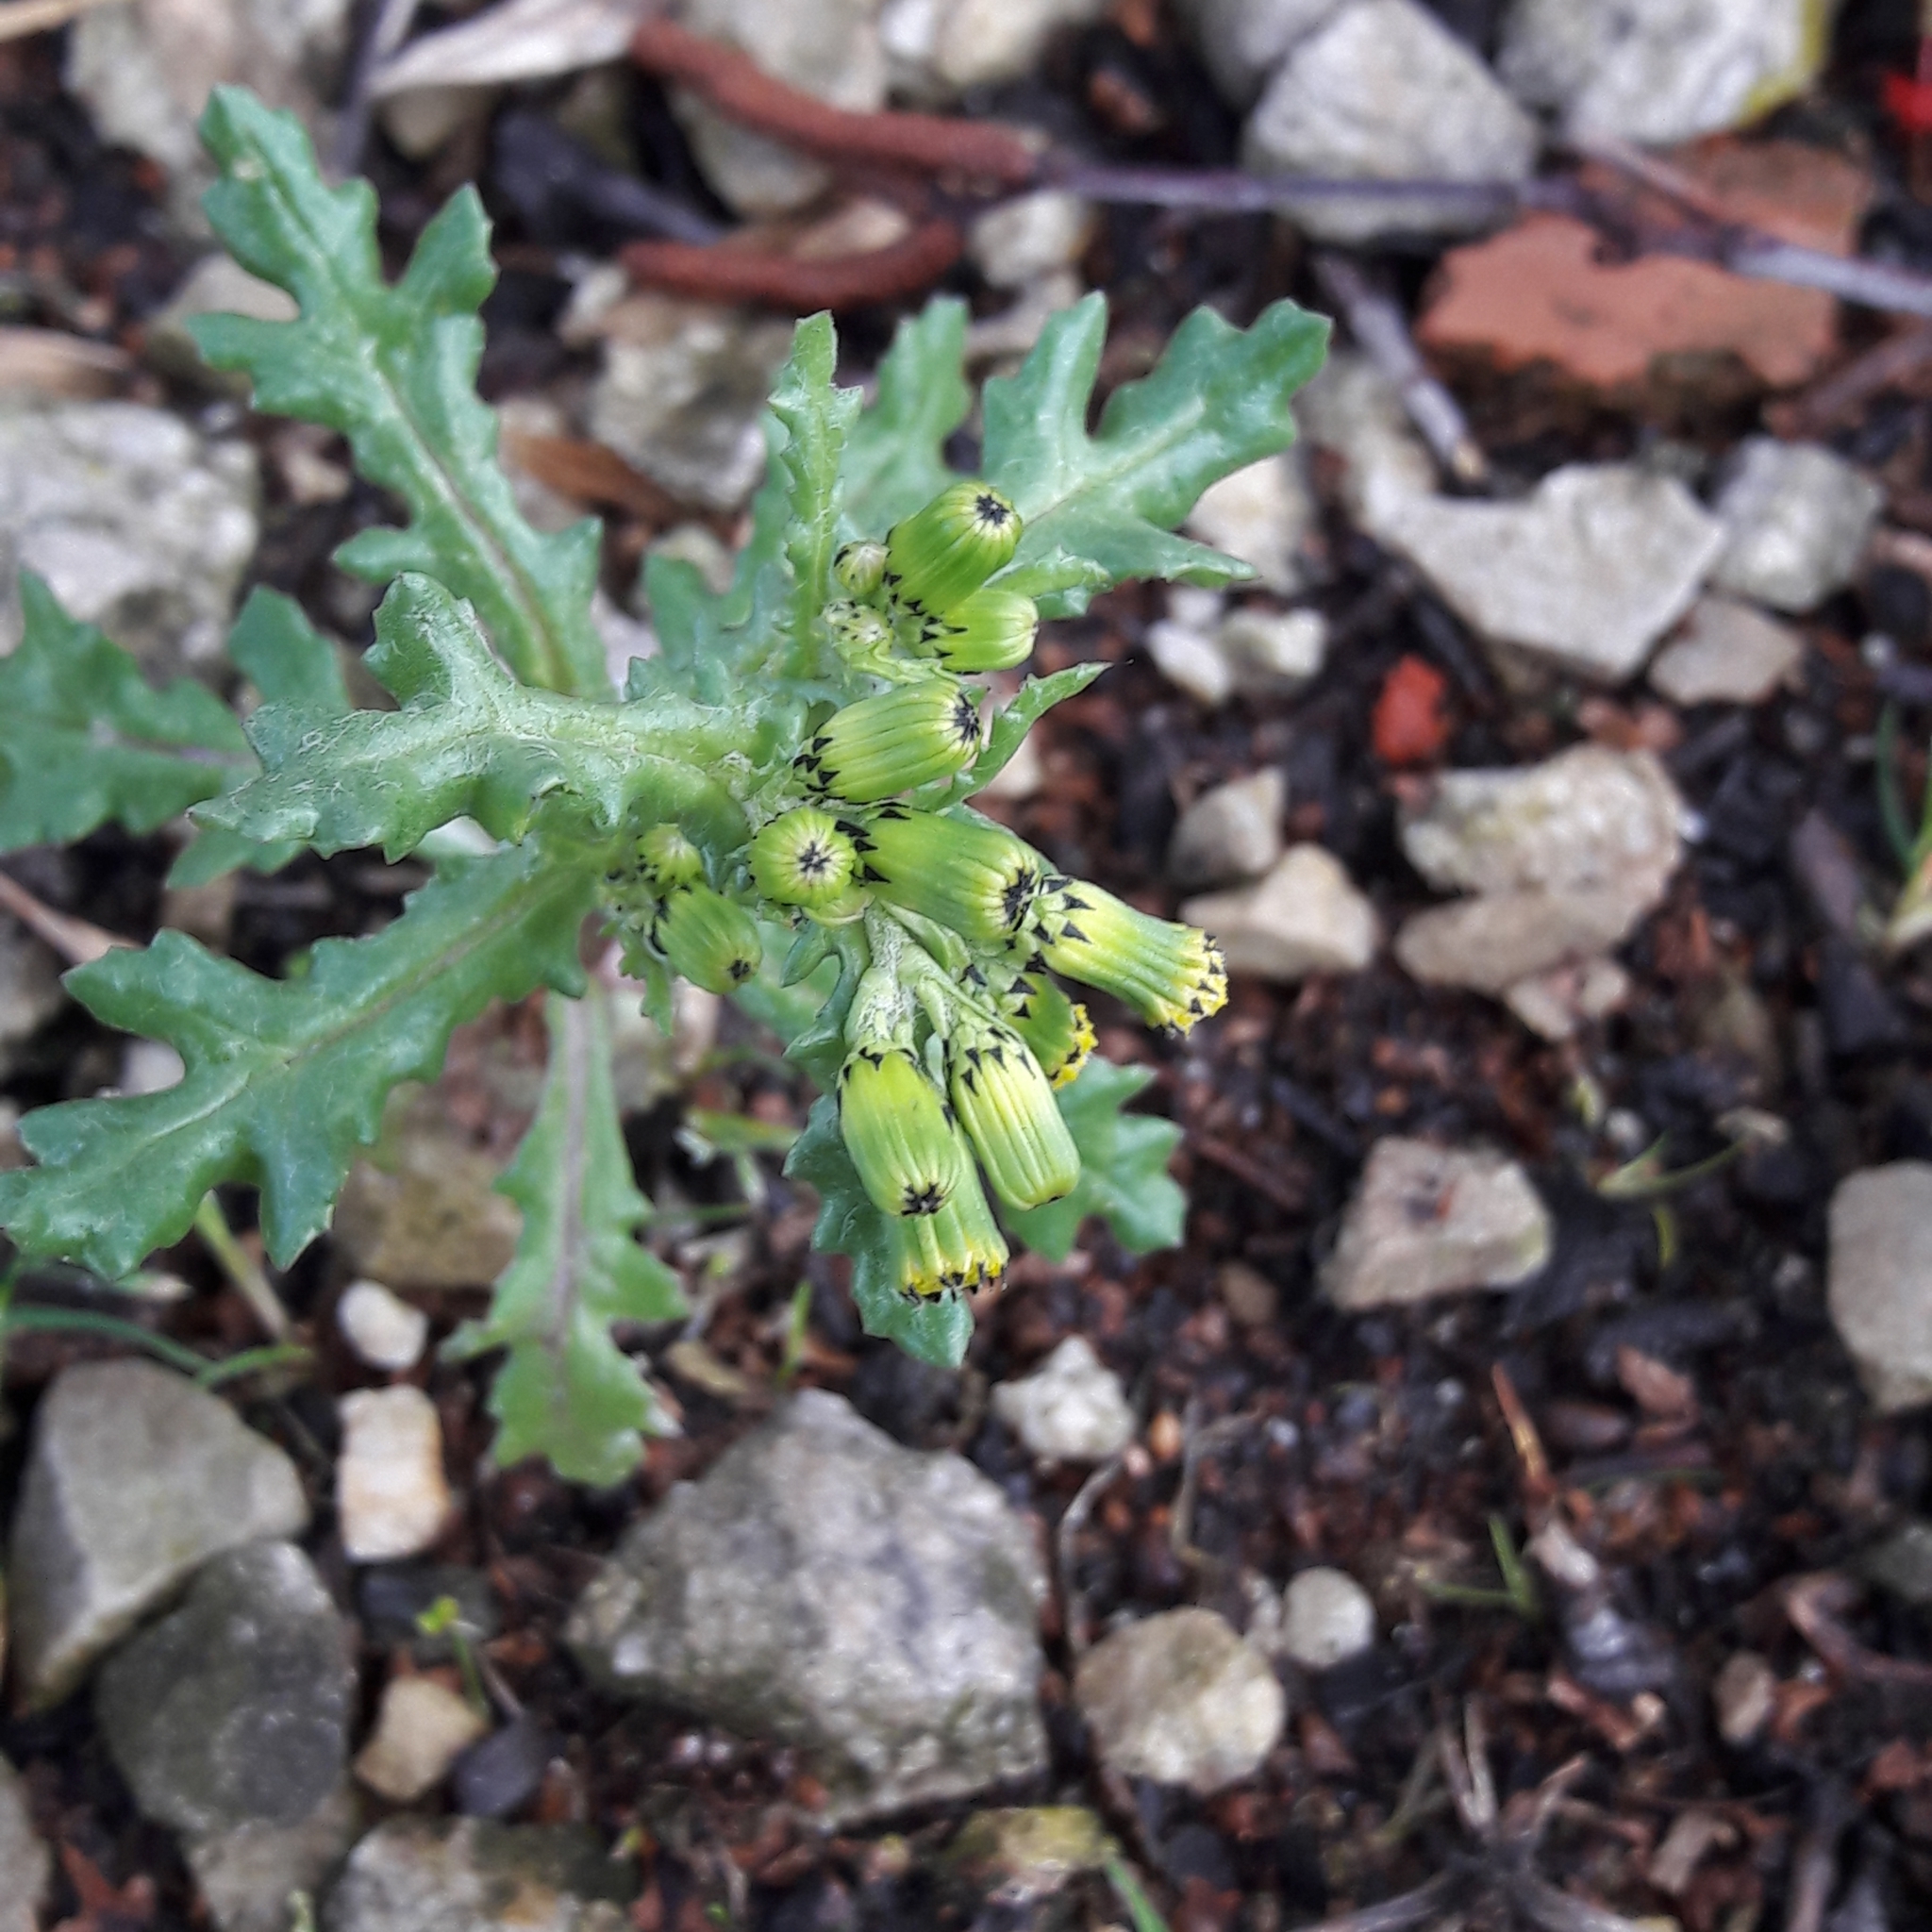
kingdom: Plantae
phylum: Tracheophyta
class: Magnoliopsida
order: Asterales
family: Asteraceae
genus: Senecio
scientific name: Senecio vulgaris
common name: Old-man-in-the-spring
